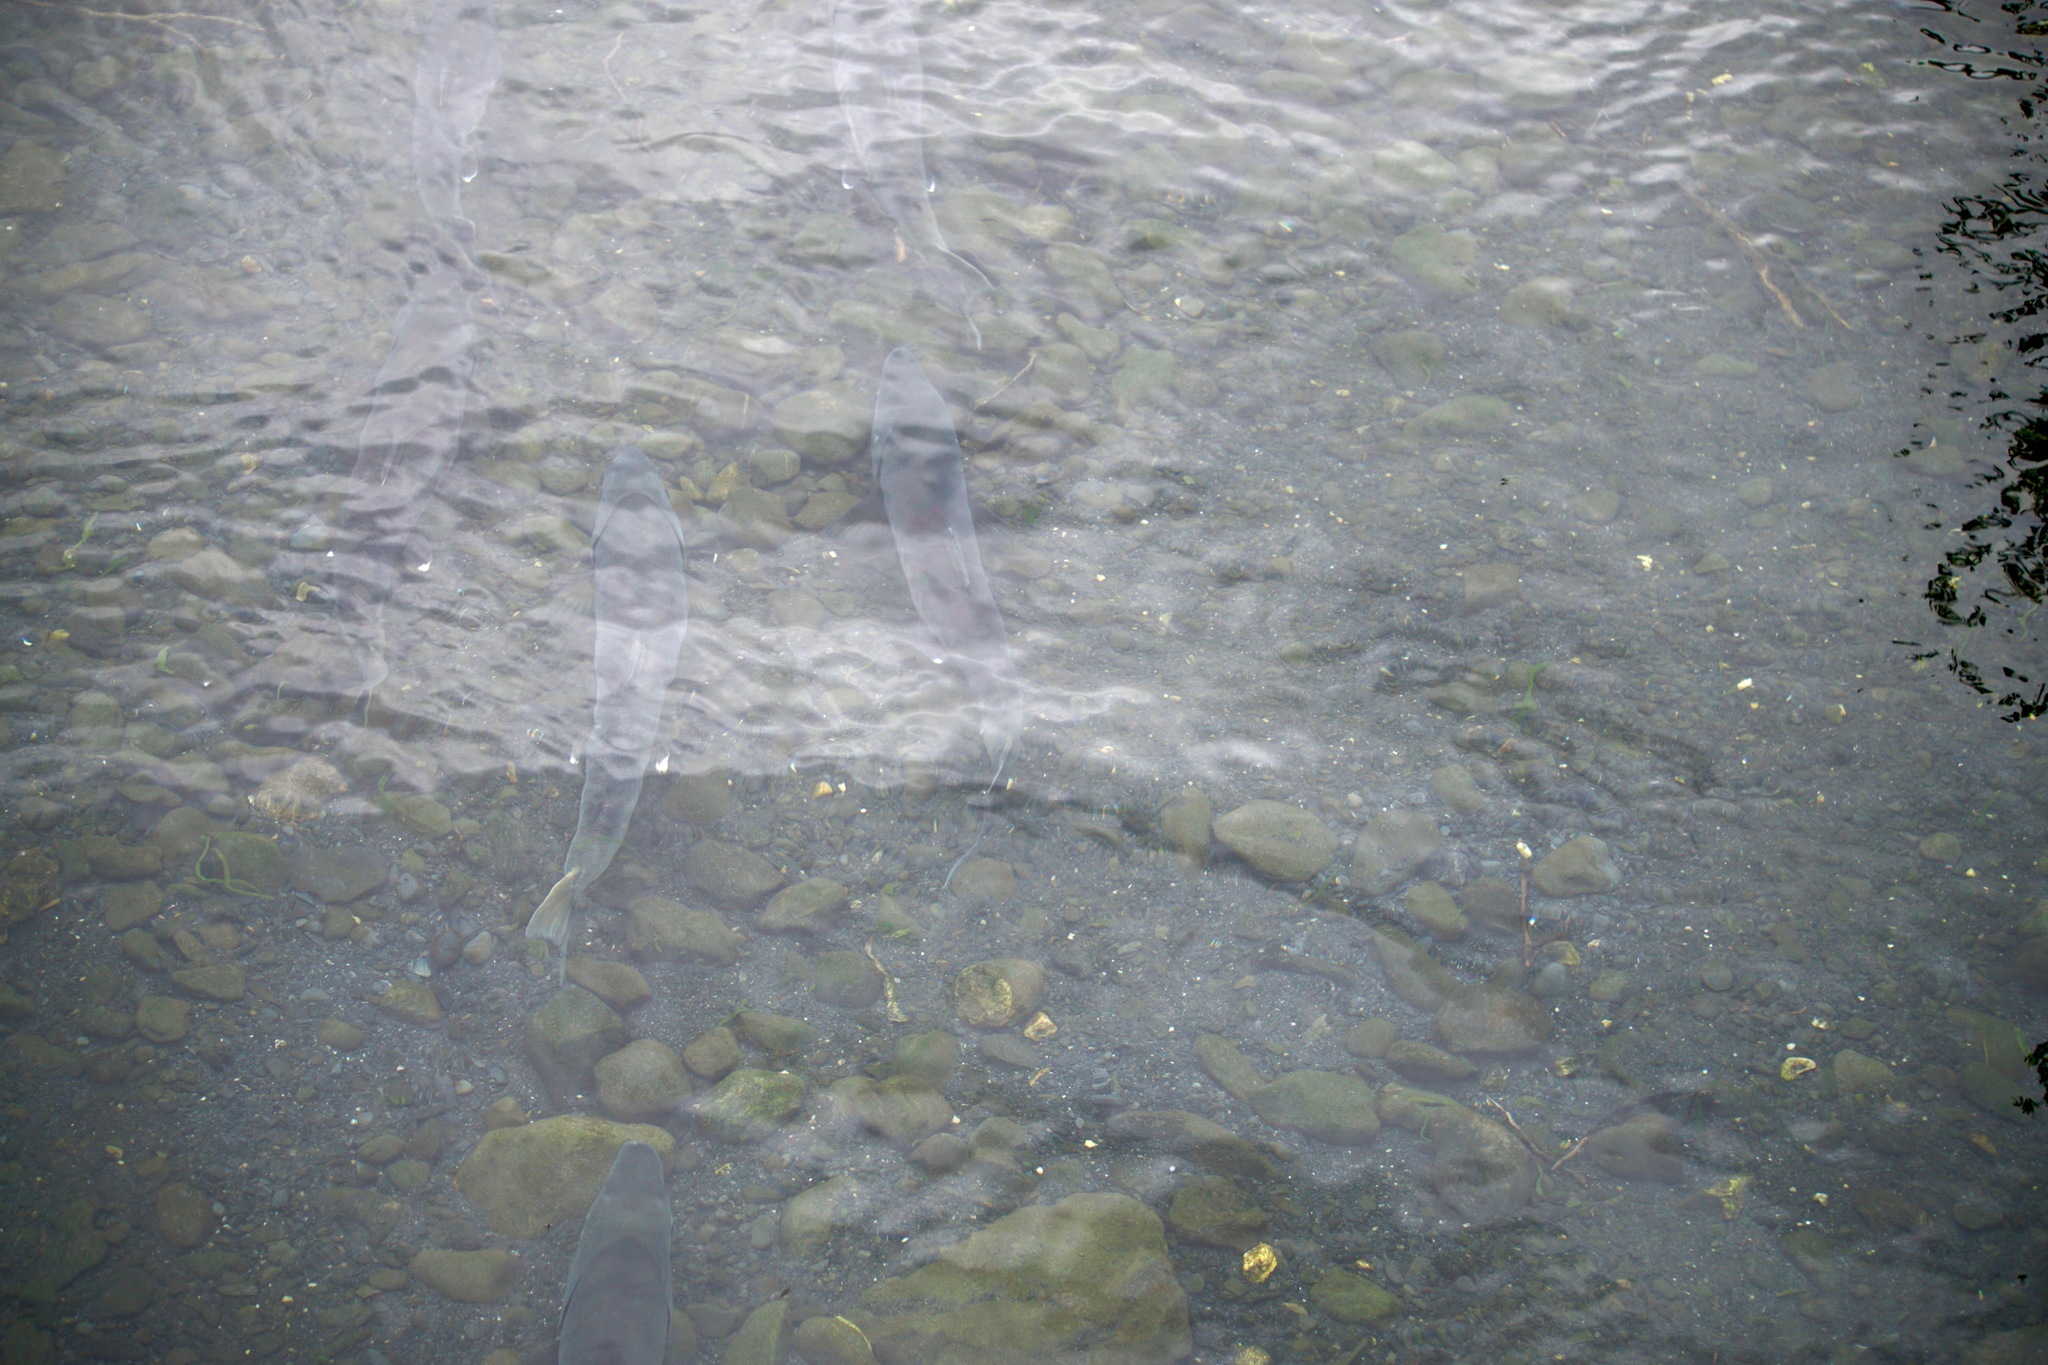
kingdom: Animalia
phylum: Chordata
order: Salmoniformes
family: Salmonidae
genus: Oncorhynchus
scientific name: Oncorhynchus kisutch
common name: Coho salmon
